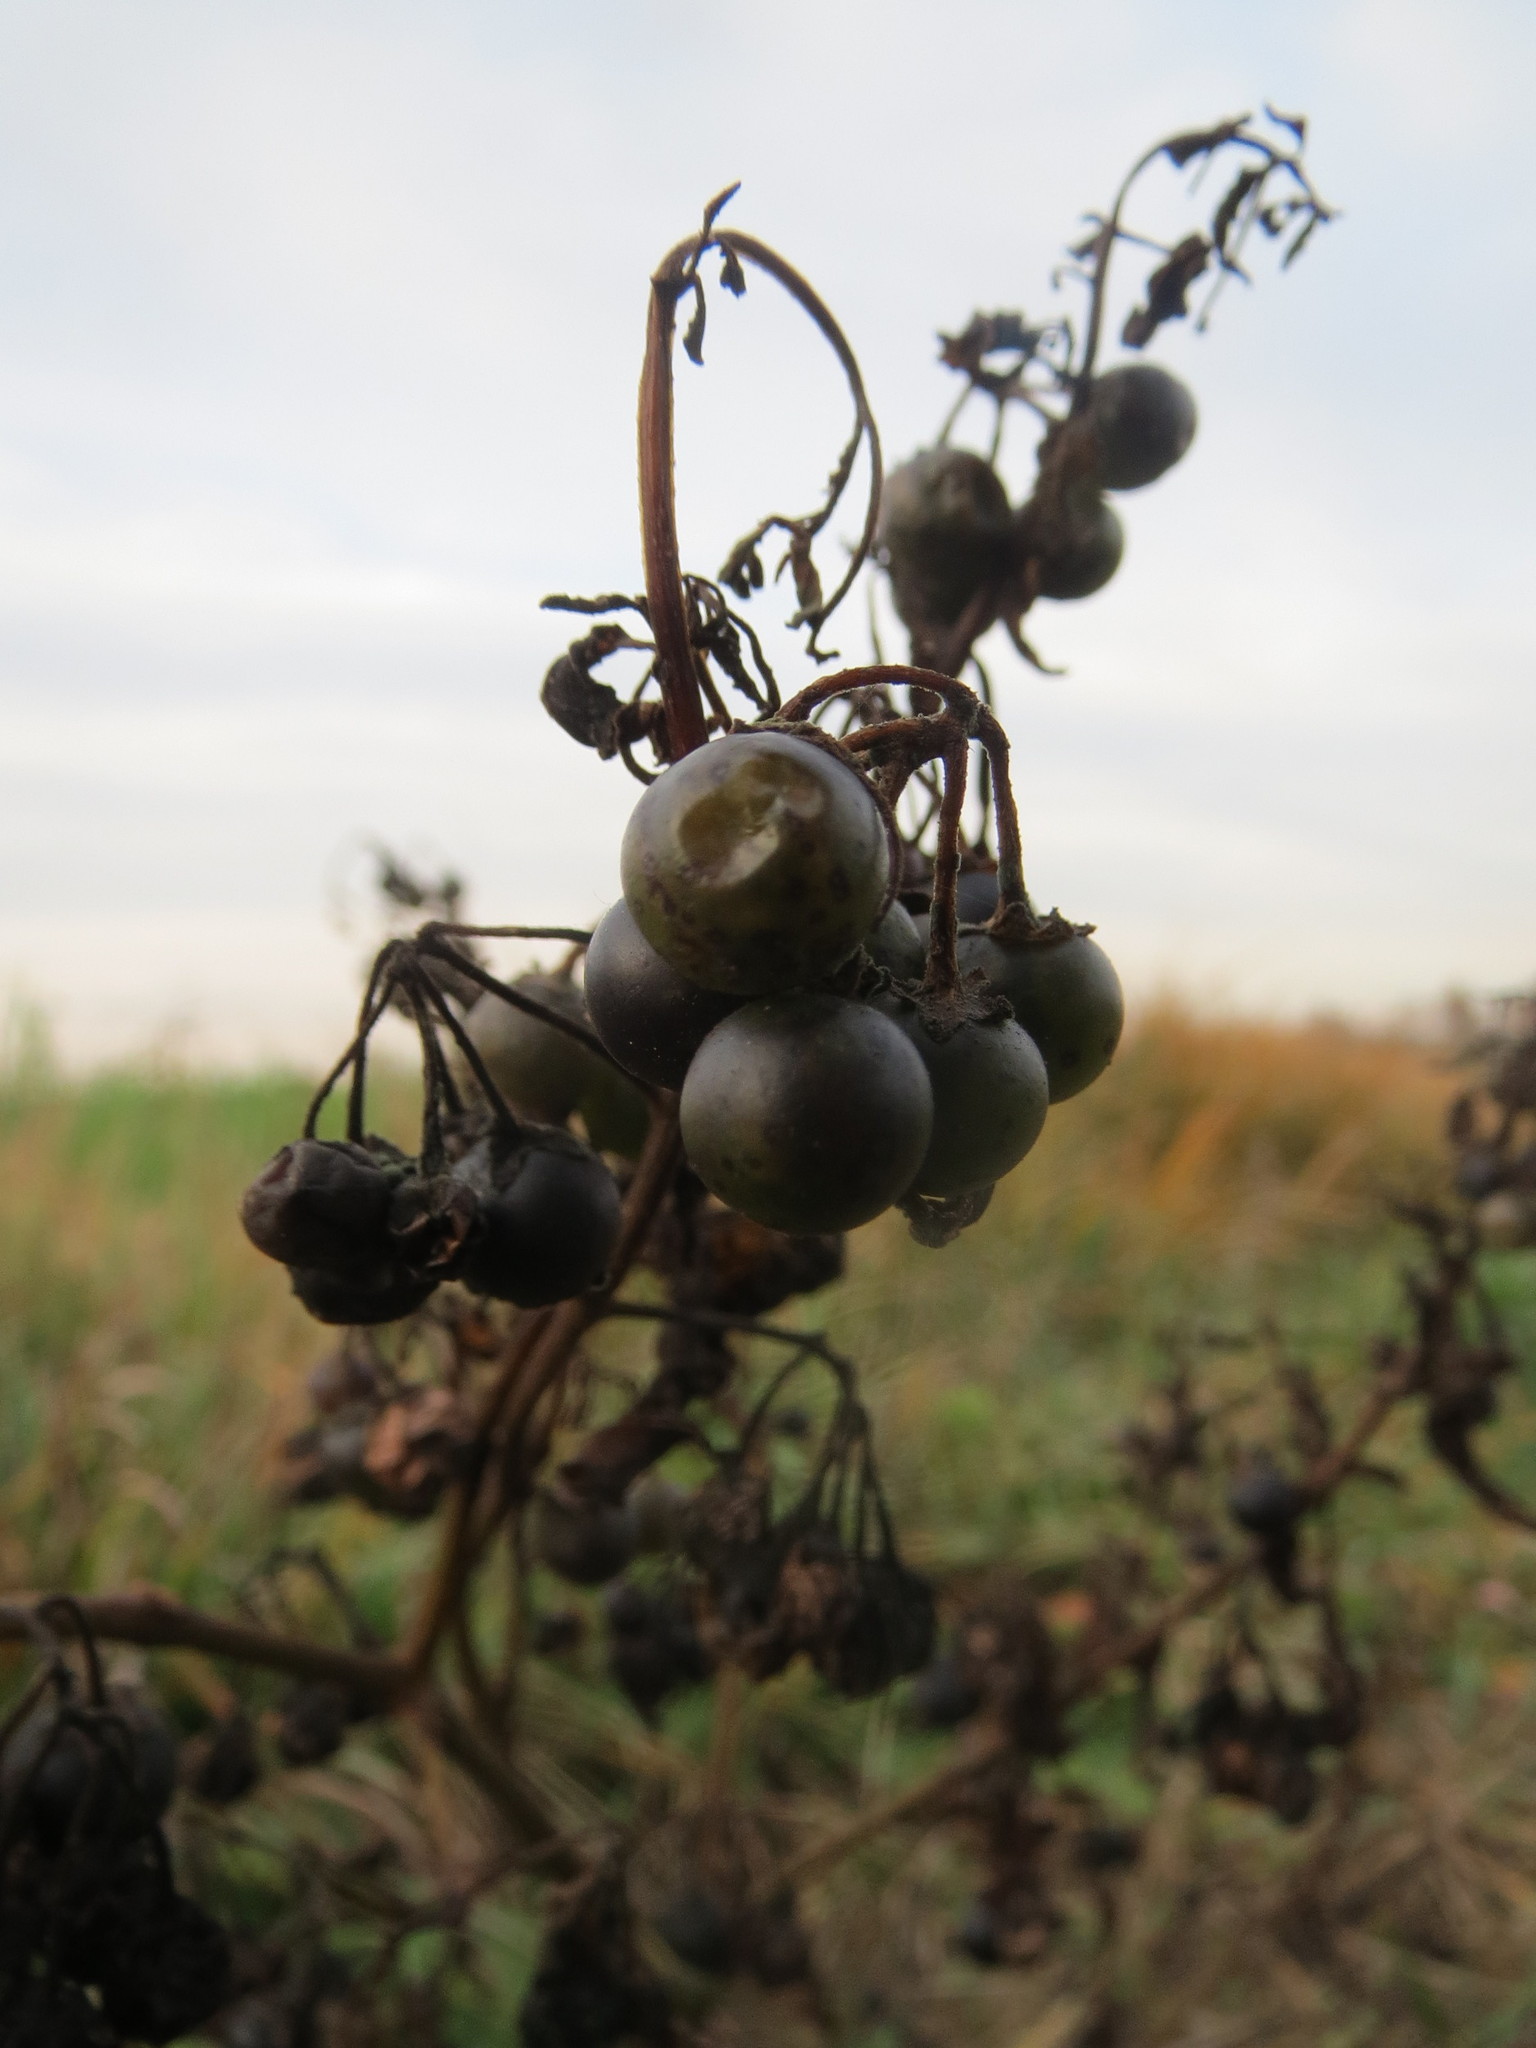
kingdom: Plantae
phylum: Tracheophyta
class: Magnoliopsida
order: Solanales
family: Solanaceae
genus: Solanum
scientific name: Solanum nigrum
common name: Black nightshade
